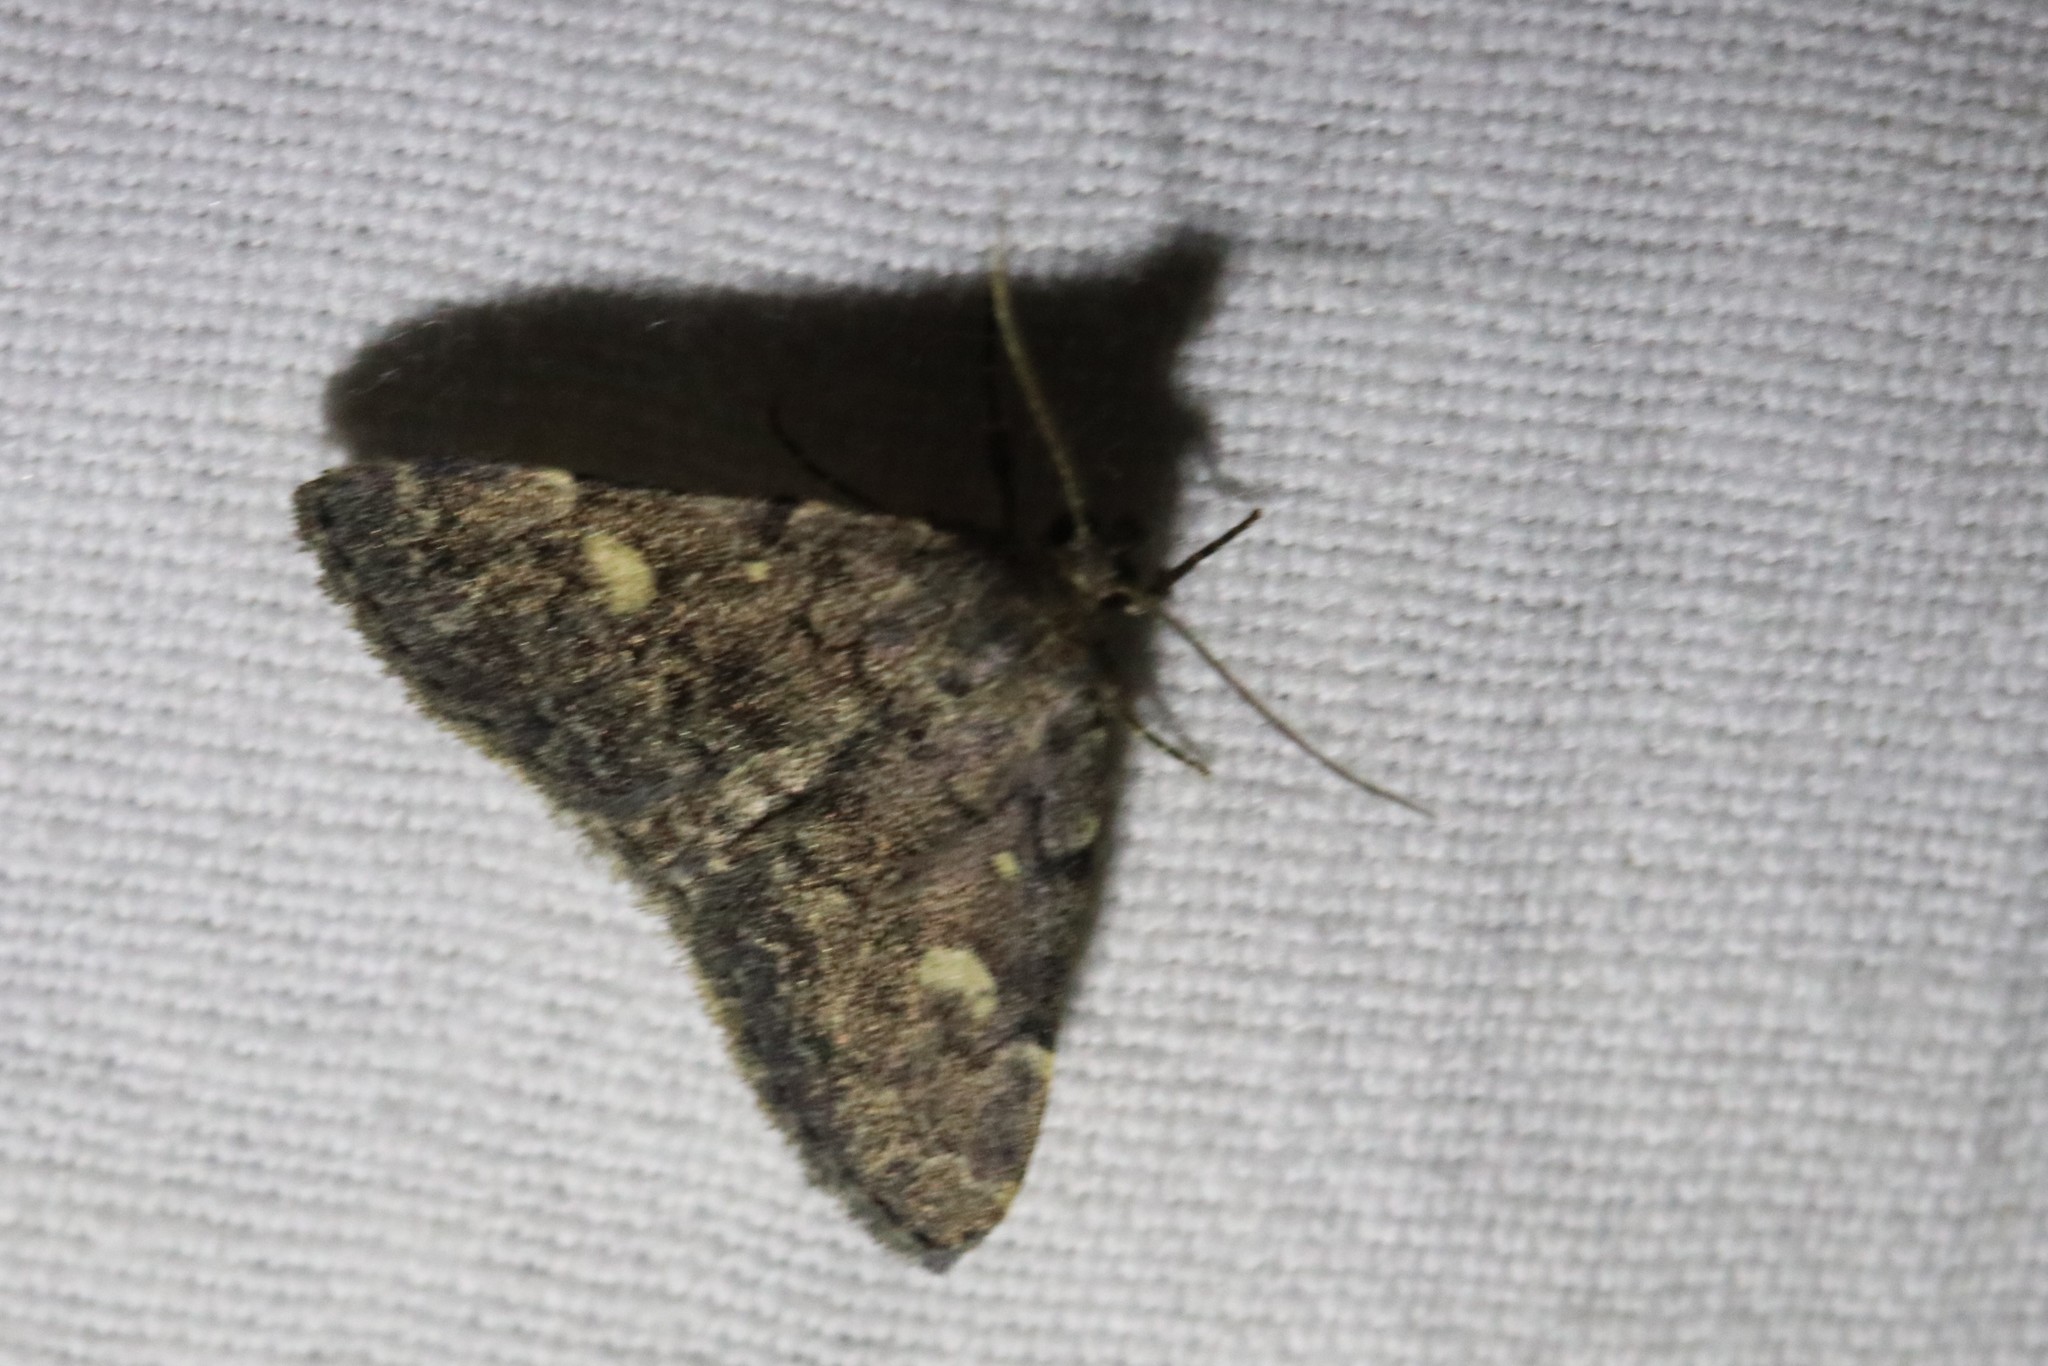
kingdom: Animalia
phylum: Arthropoda
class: Insecta
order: Lepidoptera
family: Erebidae
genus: Idia
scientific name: Idia aemula
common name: Common idia moth
